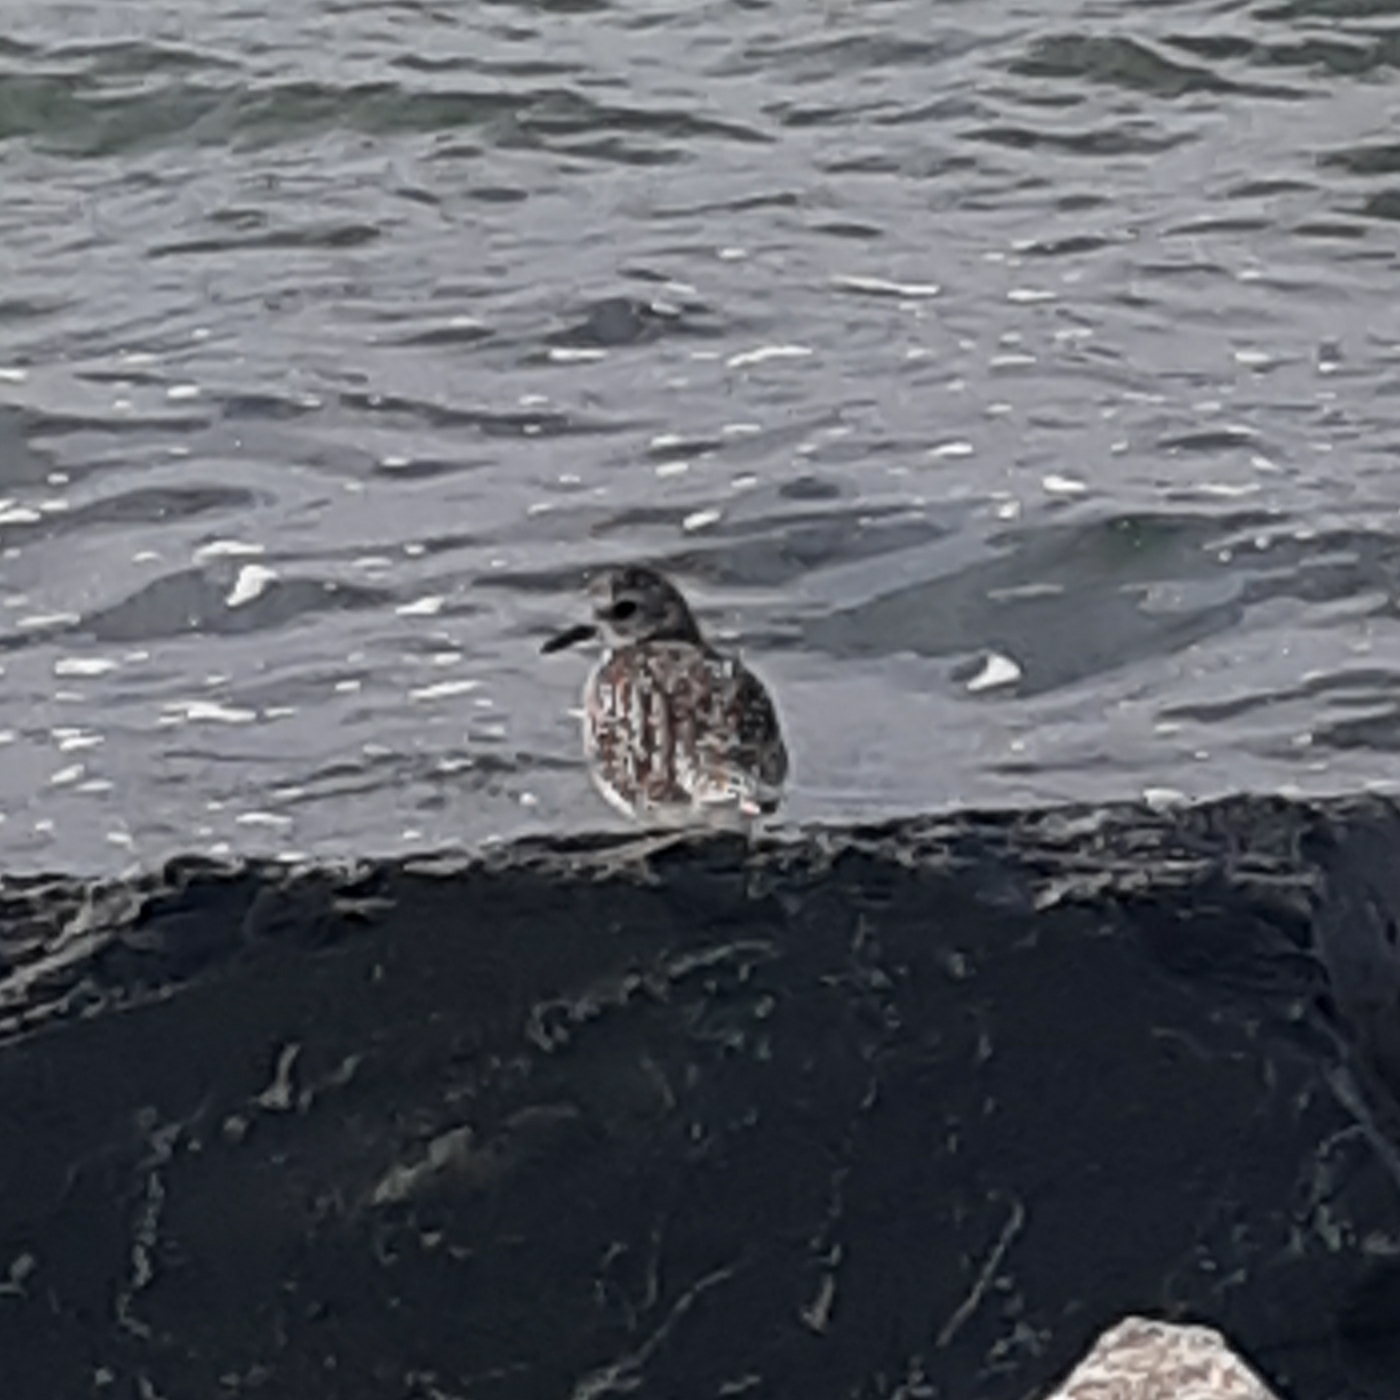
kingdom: Animalia
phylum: Chordata
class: Aves
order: Charadriiformes
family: Charadriidae
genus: Pluvialis
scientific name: Pluvialis squatarola
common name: Grey plover
